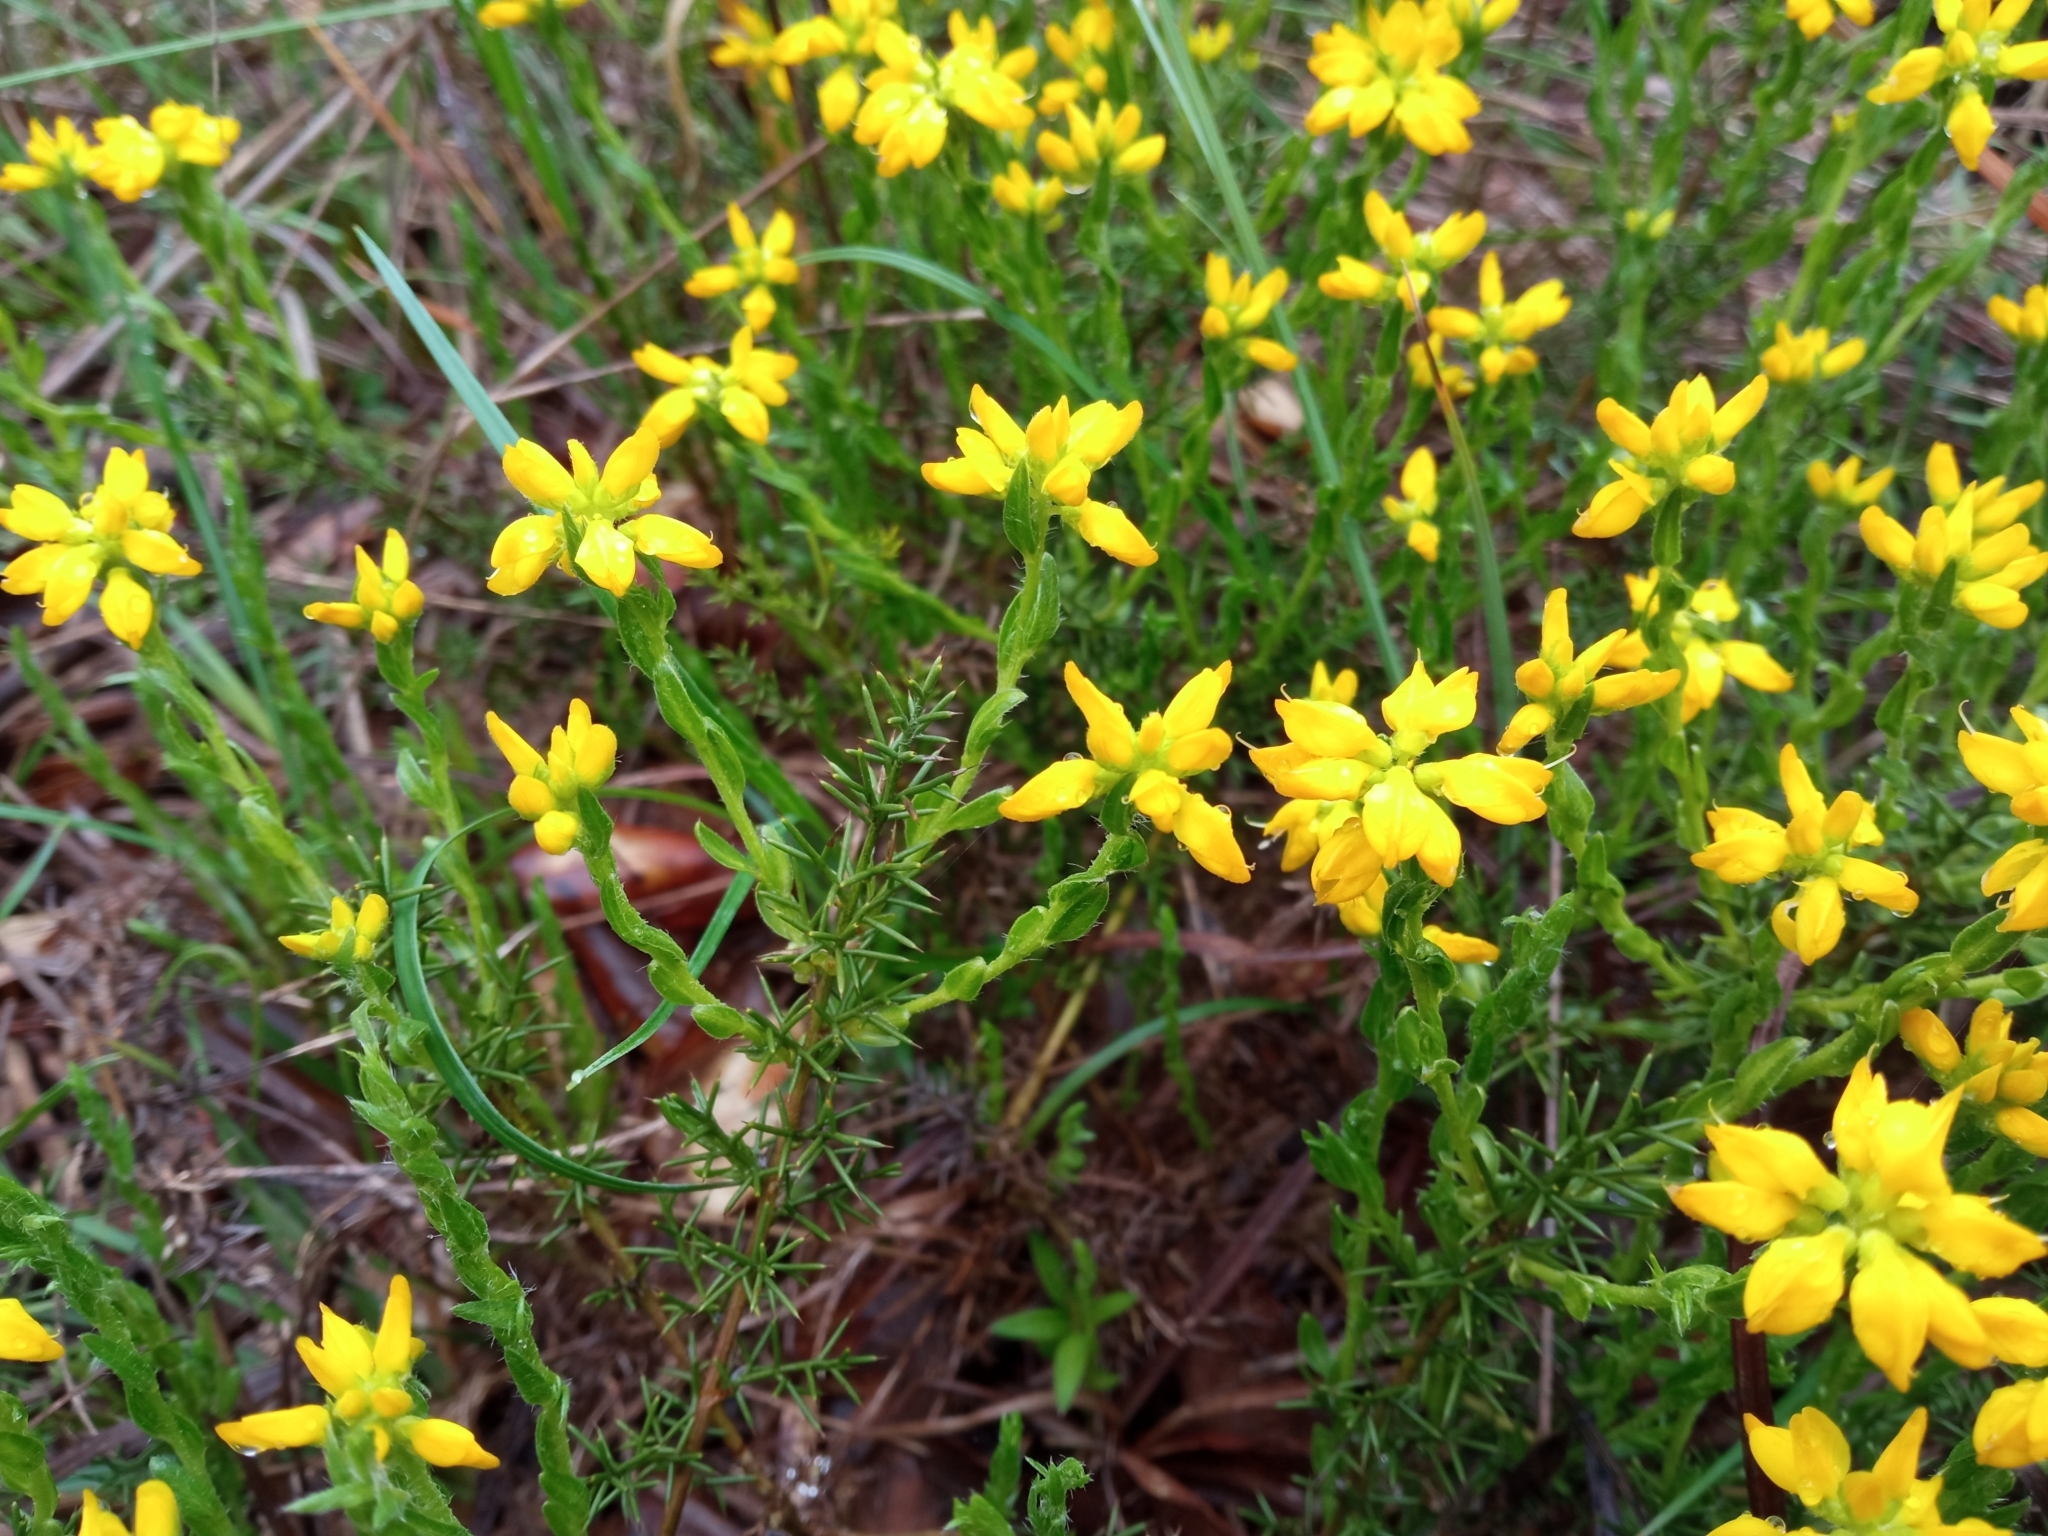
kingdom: Plantae
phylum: Tracheophyta
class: Magnoliopsida
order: Fabales
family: Fabaceae
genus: Genista
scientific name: Genista hispanica
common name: Spanish gorse
